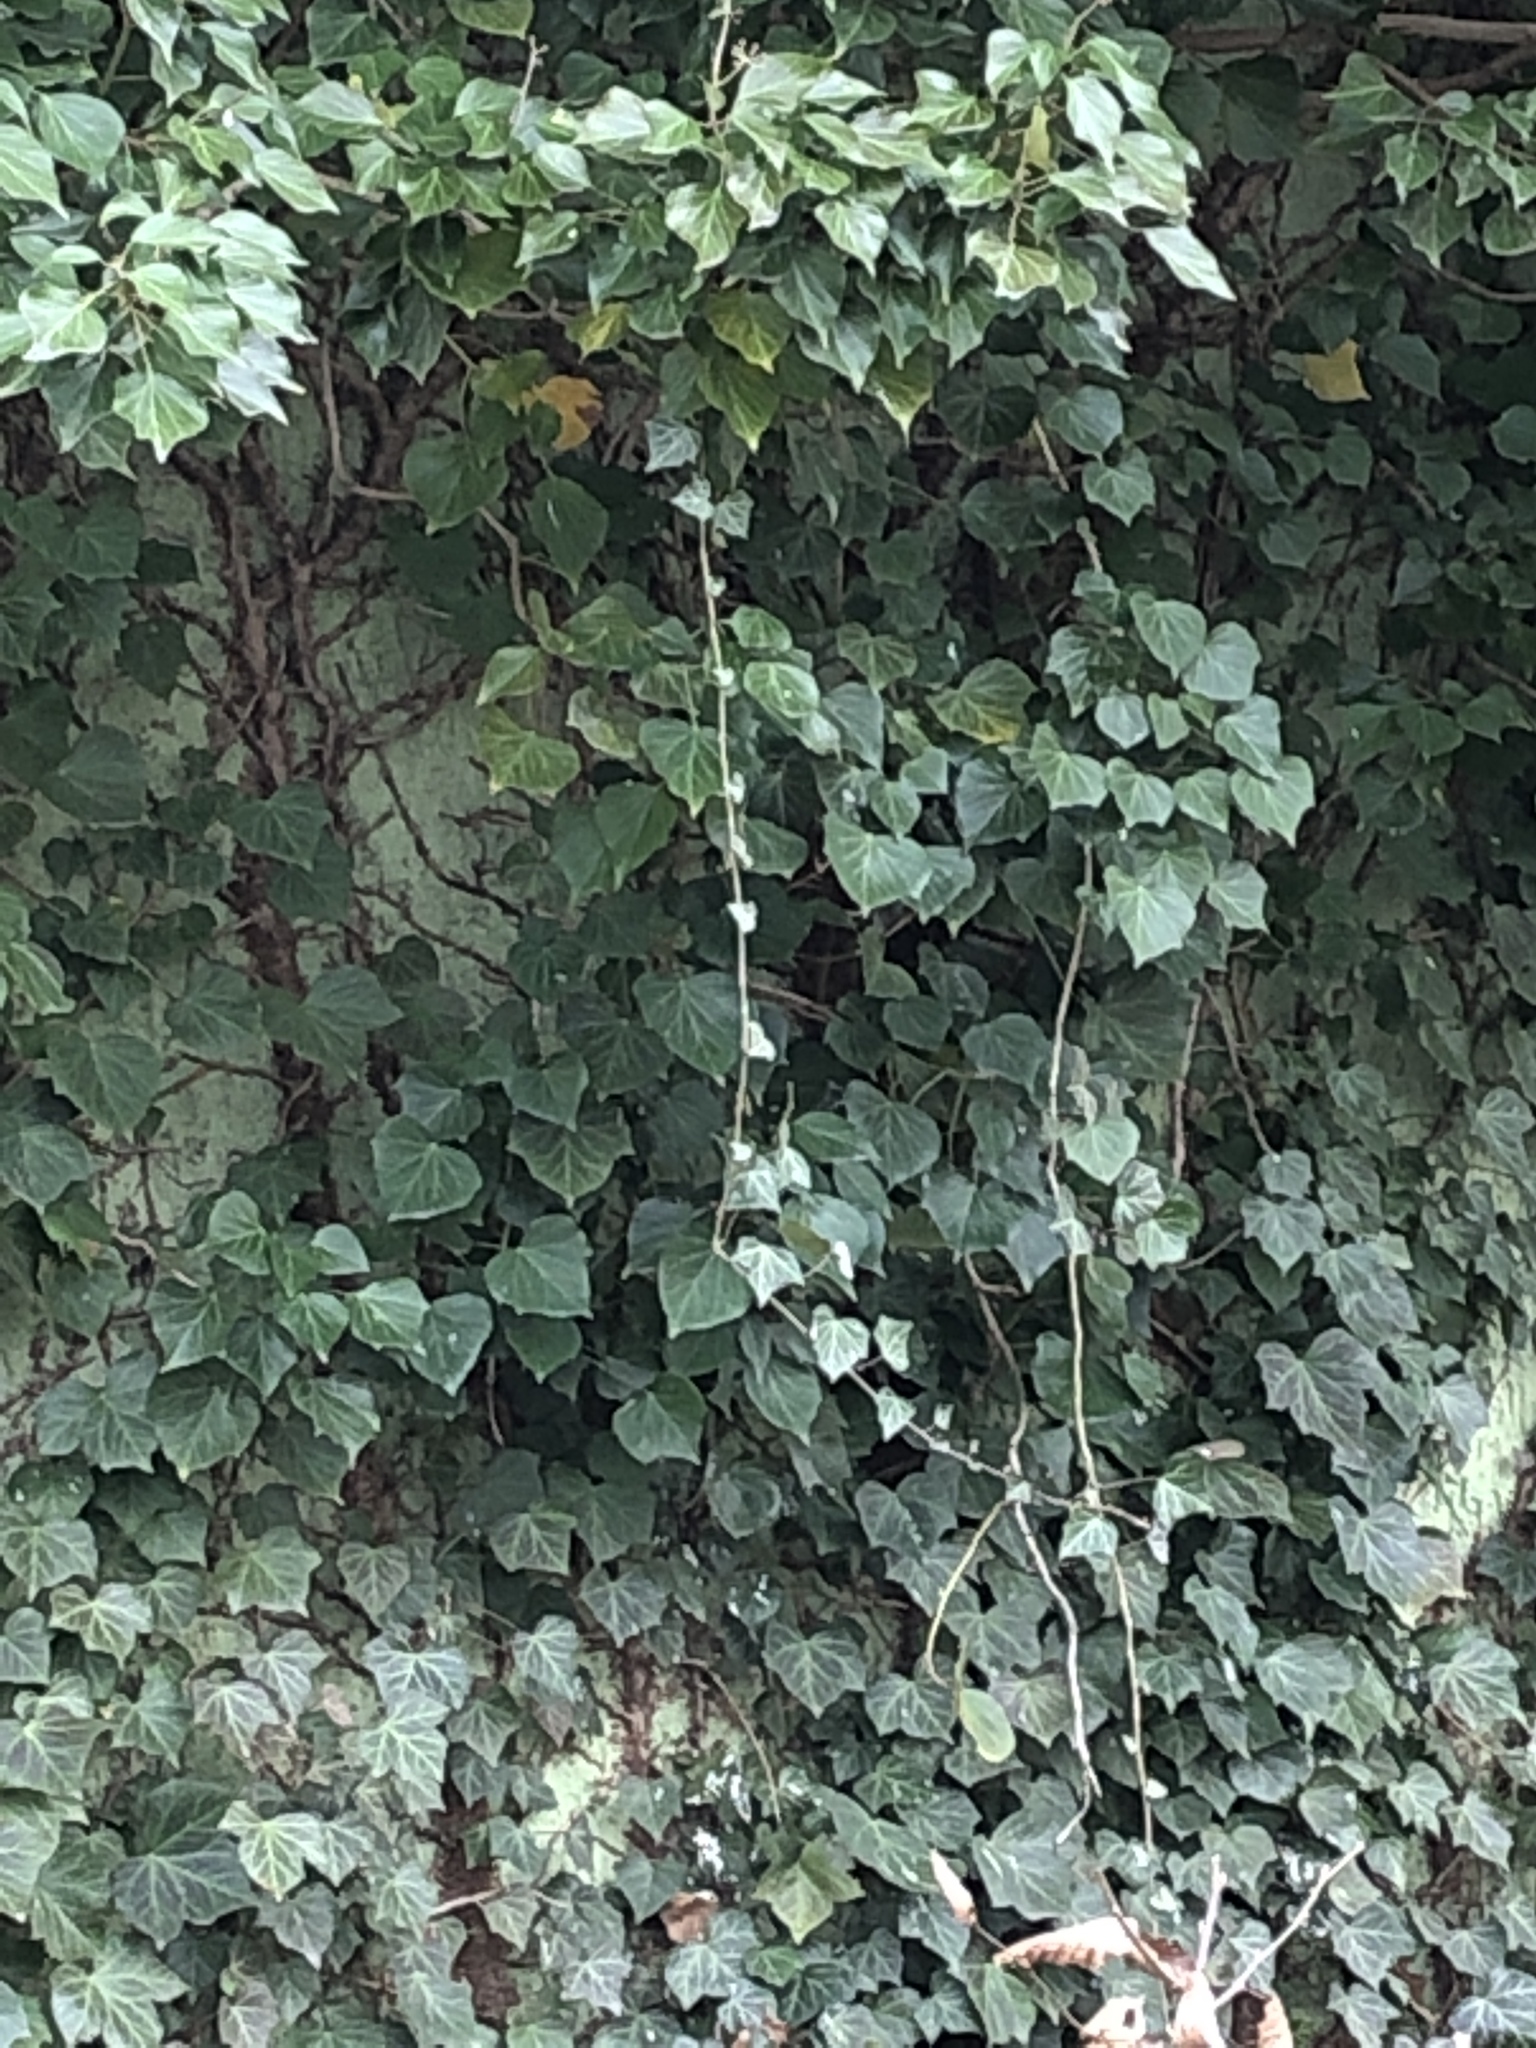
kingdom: Plantae
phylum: Tracheophyta
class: Magnoliopsida
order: Apiales
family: Araliaceae
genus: Hedera
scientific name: Hedera helix
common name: Ivy
